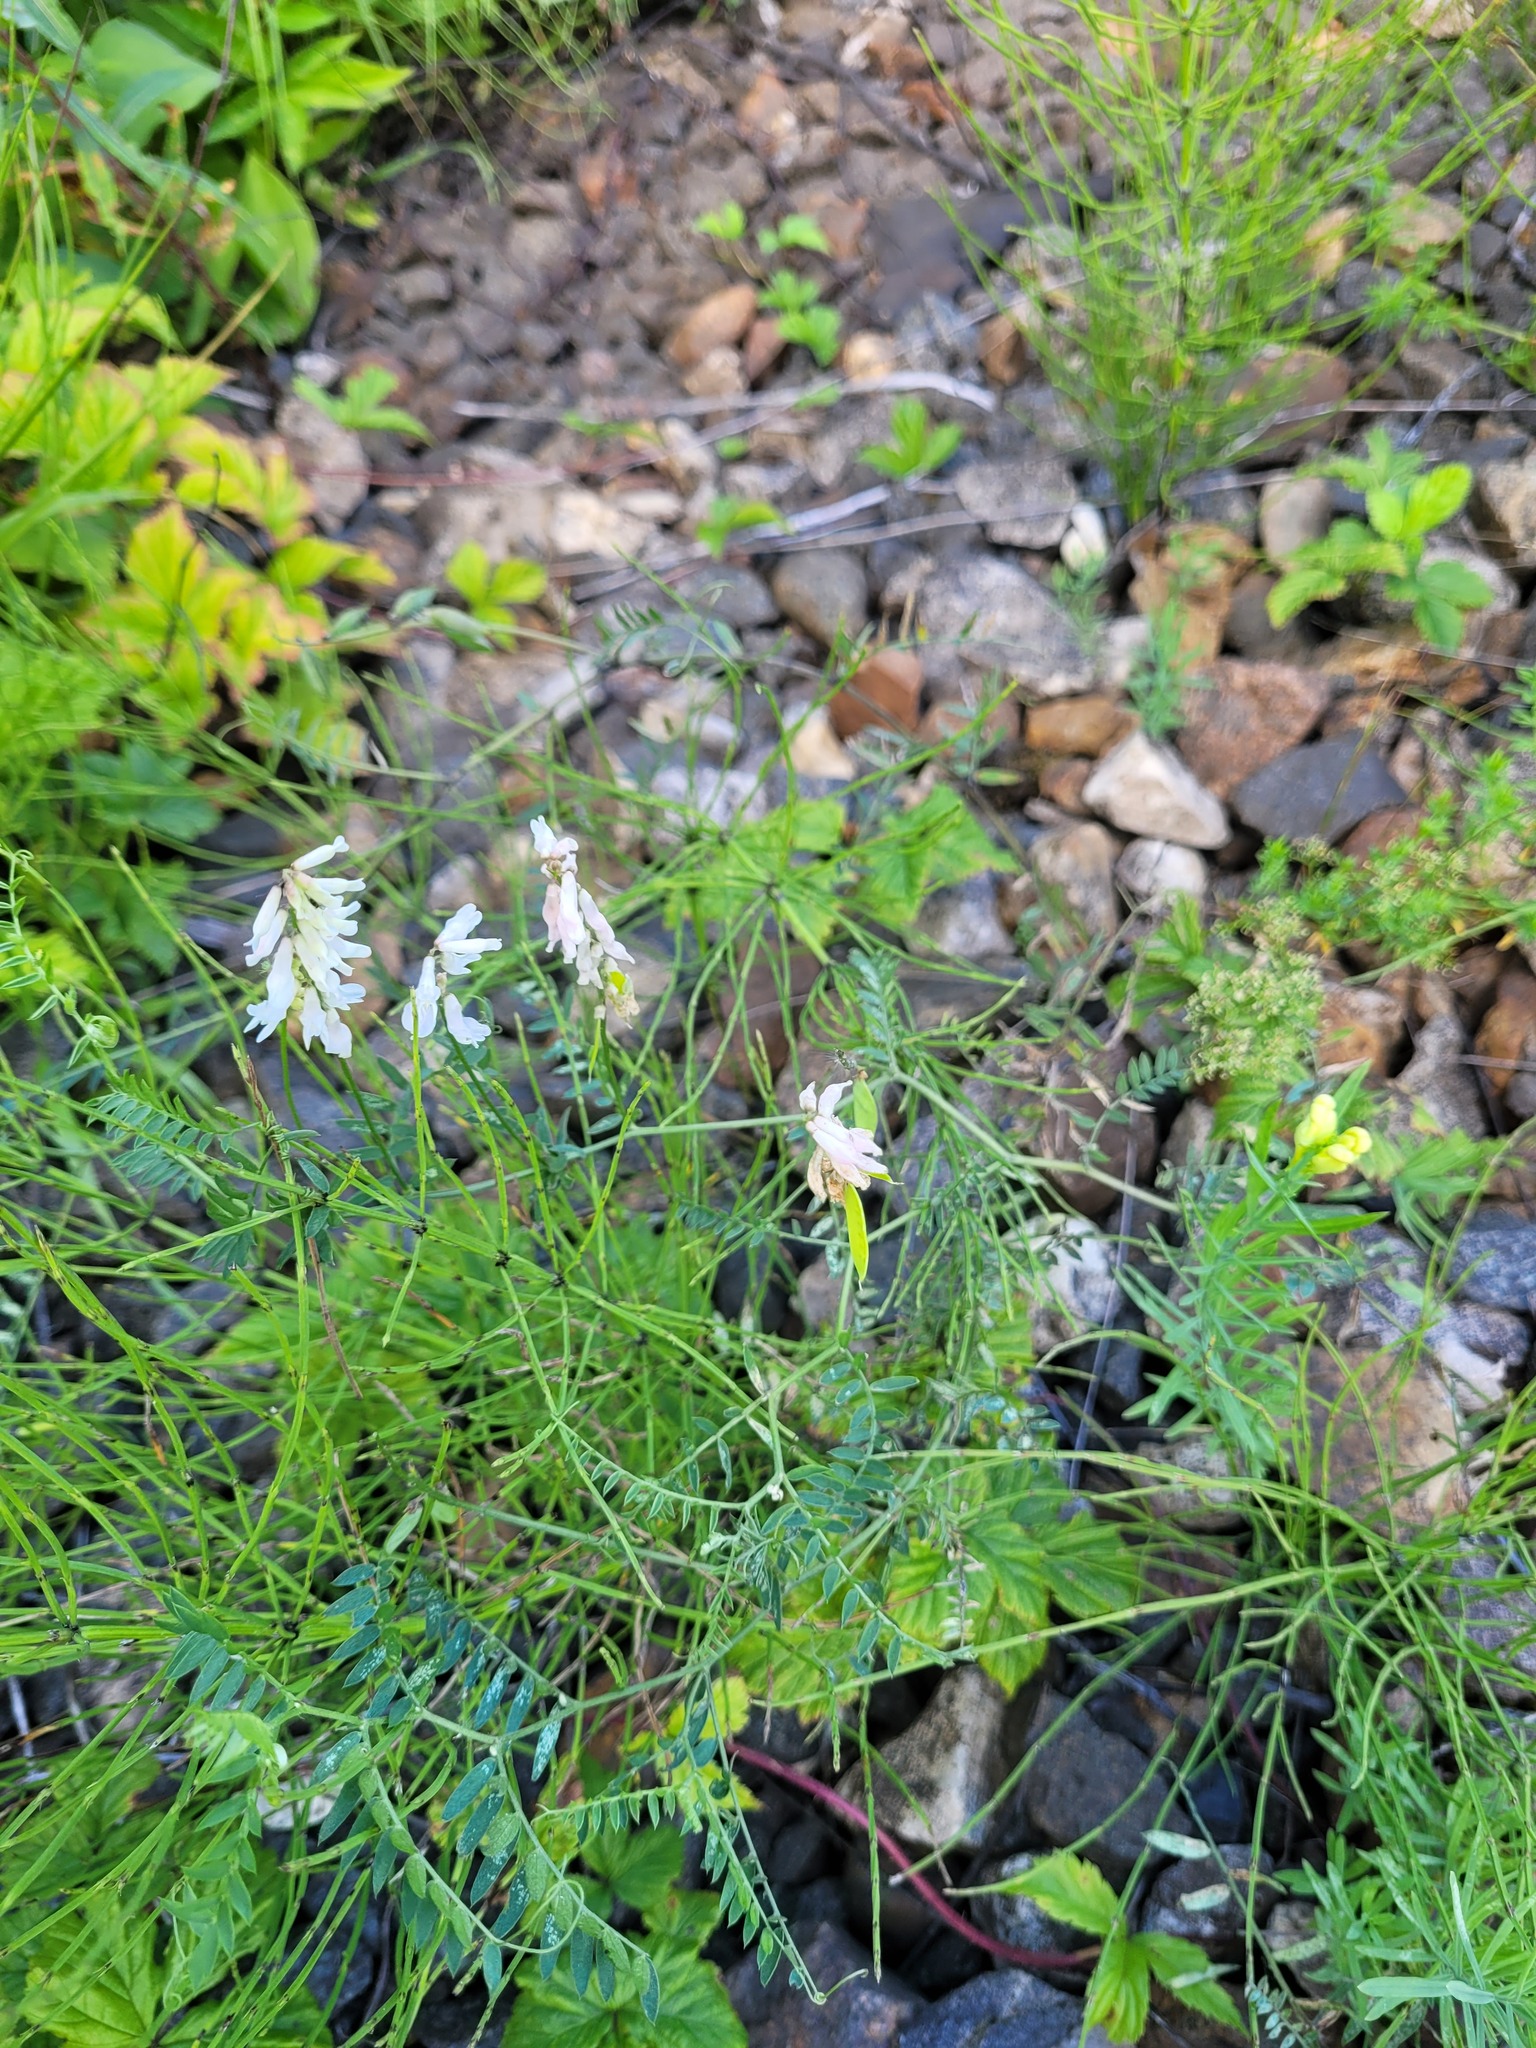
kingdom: Plantae
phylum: Tracheophyta
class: Magnoliopsida
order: Fabales
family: Fabaceae
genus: Vicia
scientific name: Vicia cracca
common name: Bird vetch
